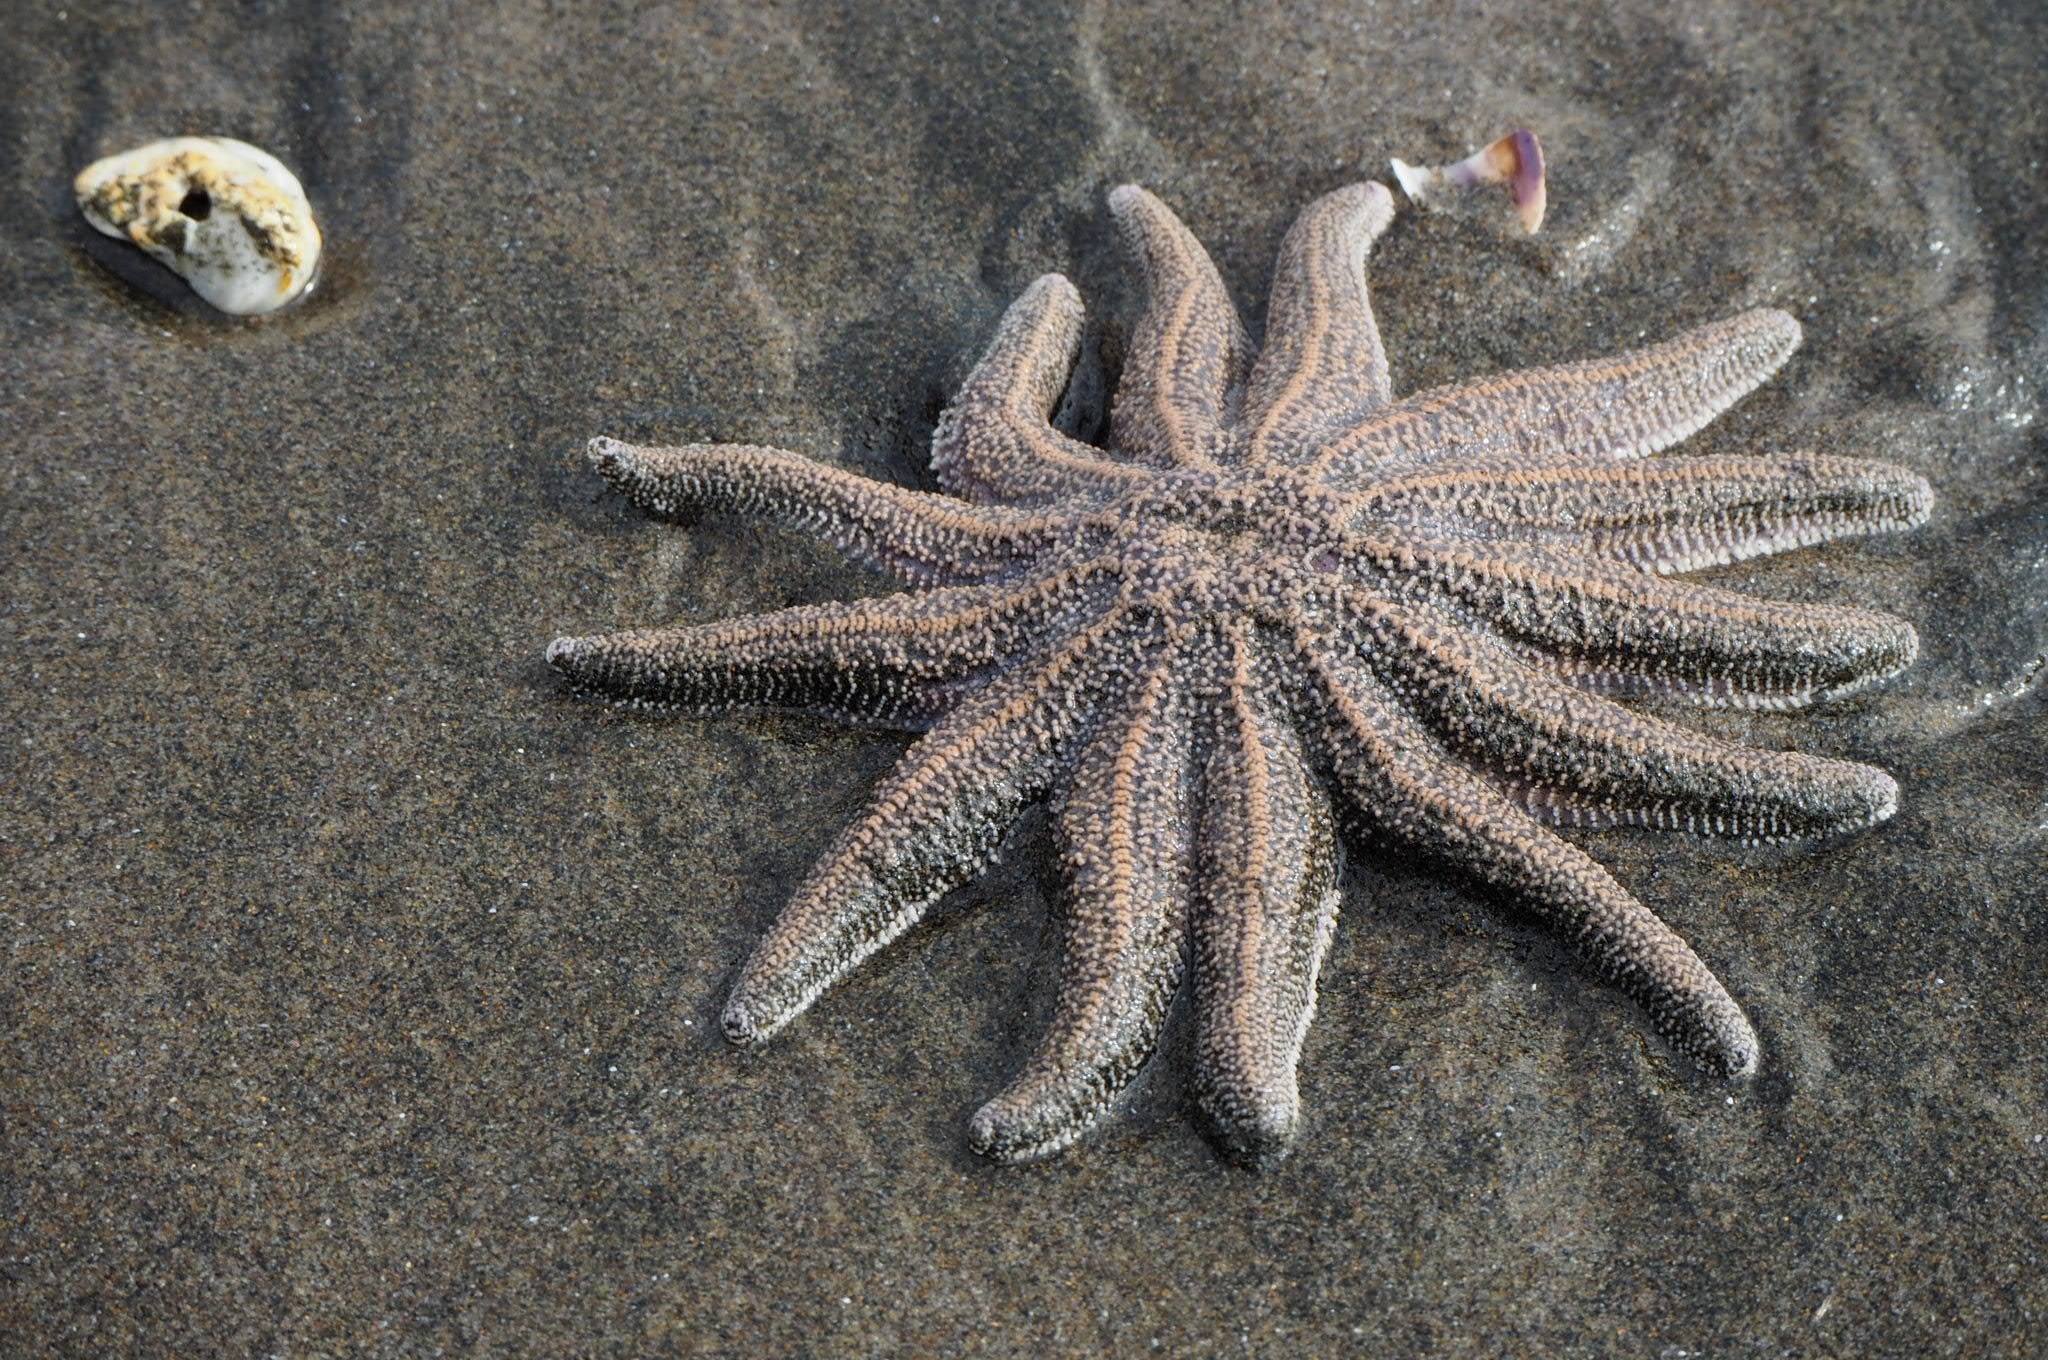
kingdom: Animalia
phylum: Echinodermata
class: Asteroidea
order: Forcipulatida
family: Stichasteridae
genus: Stichaster
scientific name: Stichaster australis
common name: Reef starfish
